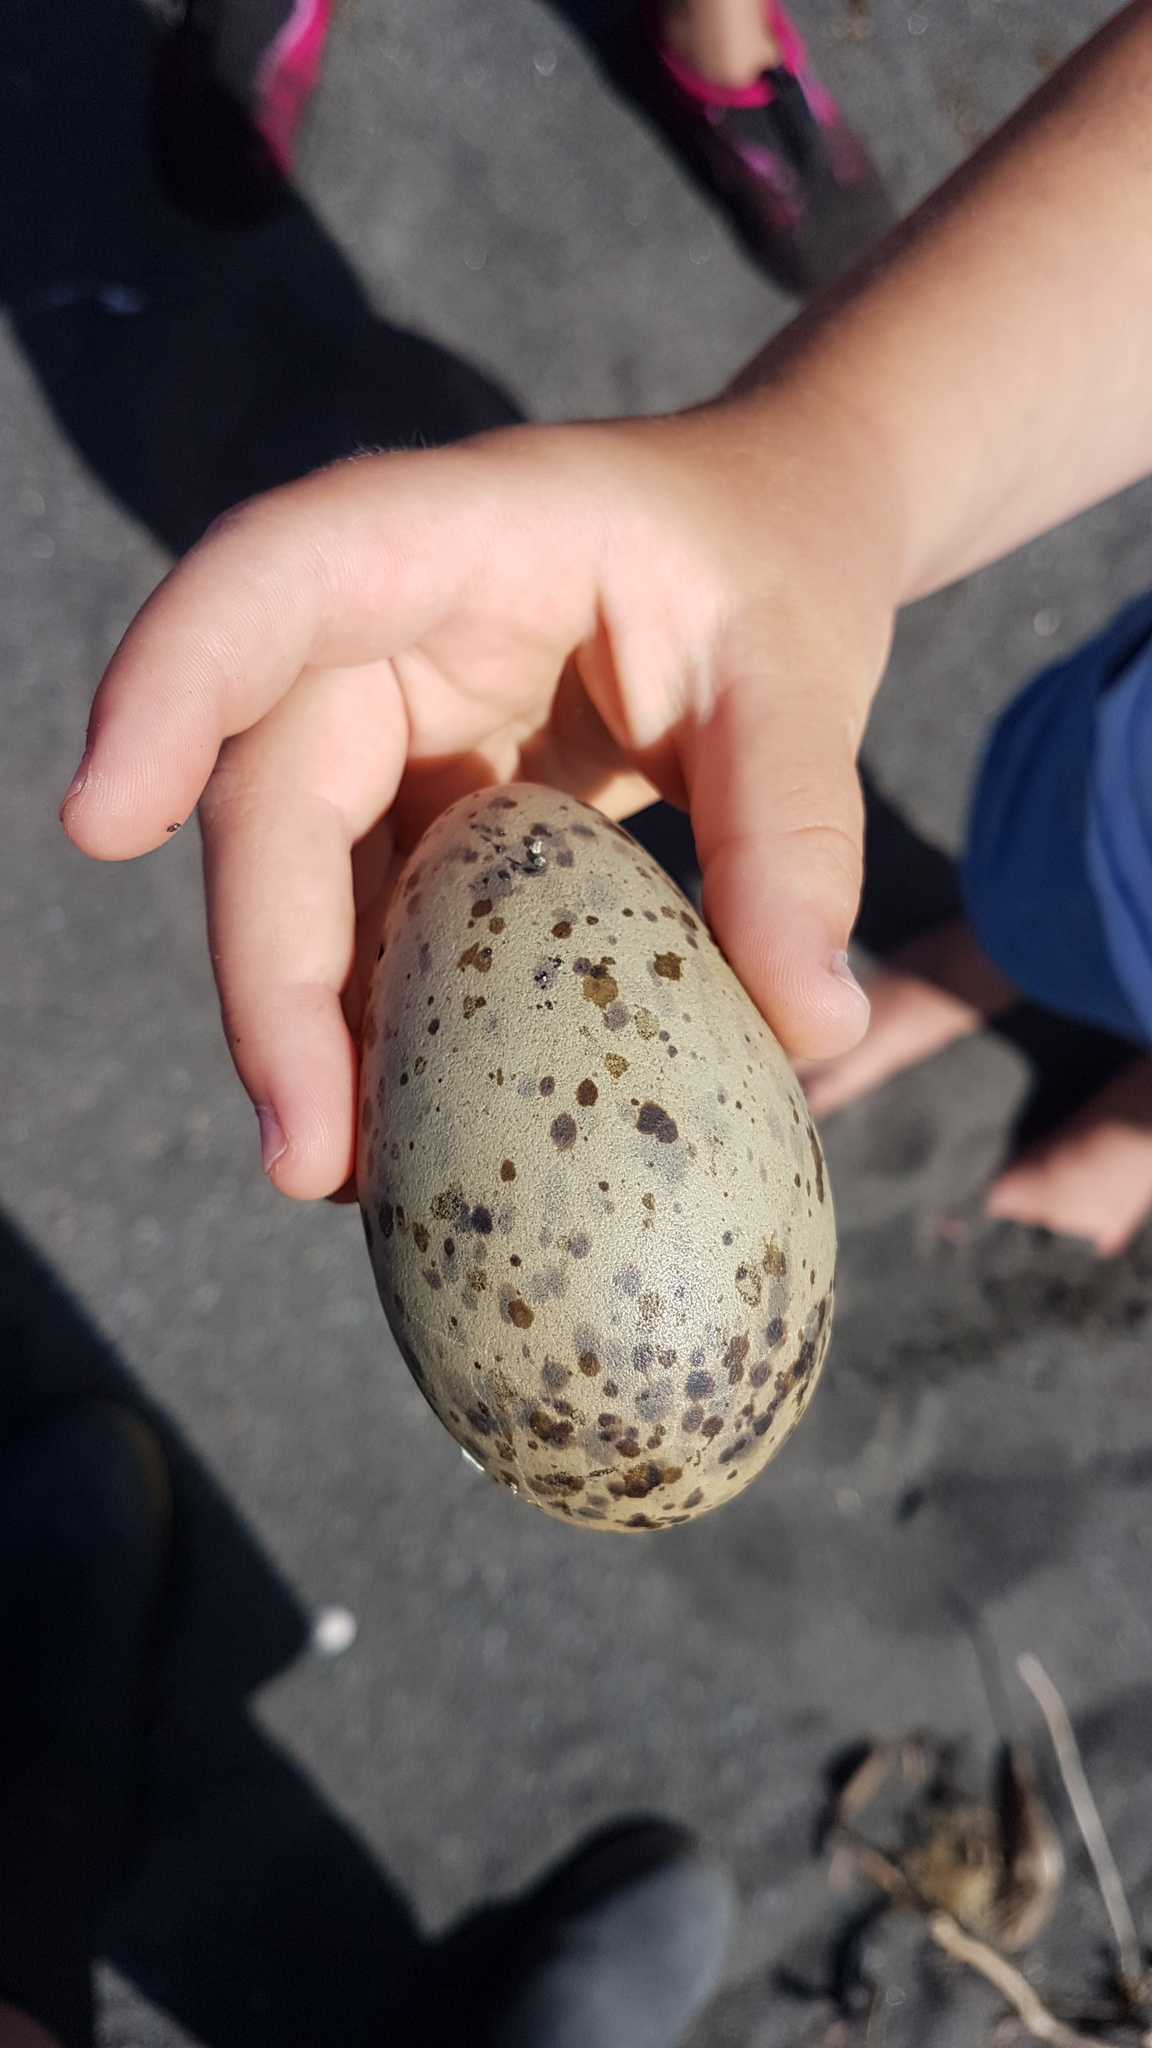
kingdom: Animalia
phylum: Chordata
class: Aves
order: Charadriiformes
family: Laridae
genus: Larus
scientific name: Larus dominicanus
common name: Kelp gull
